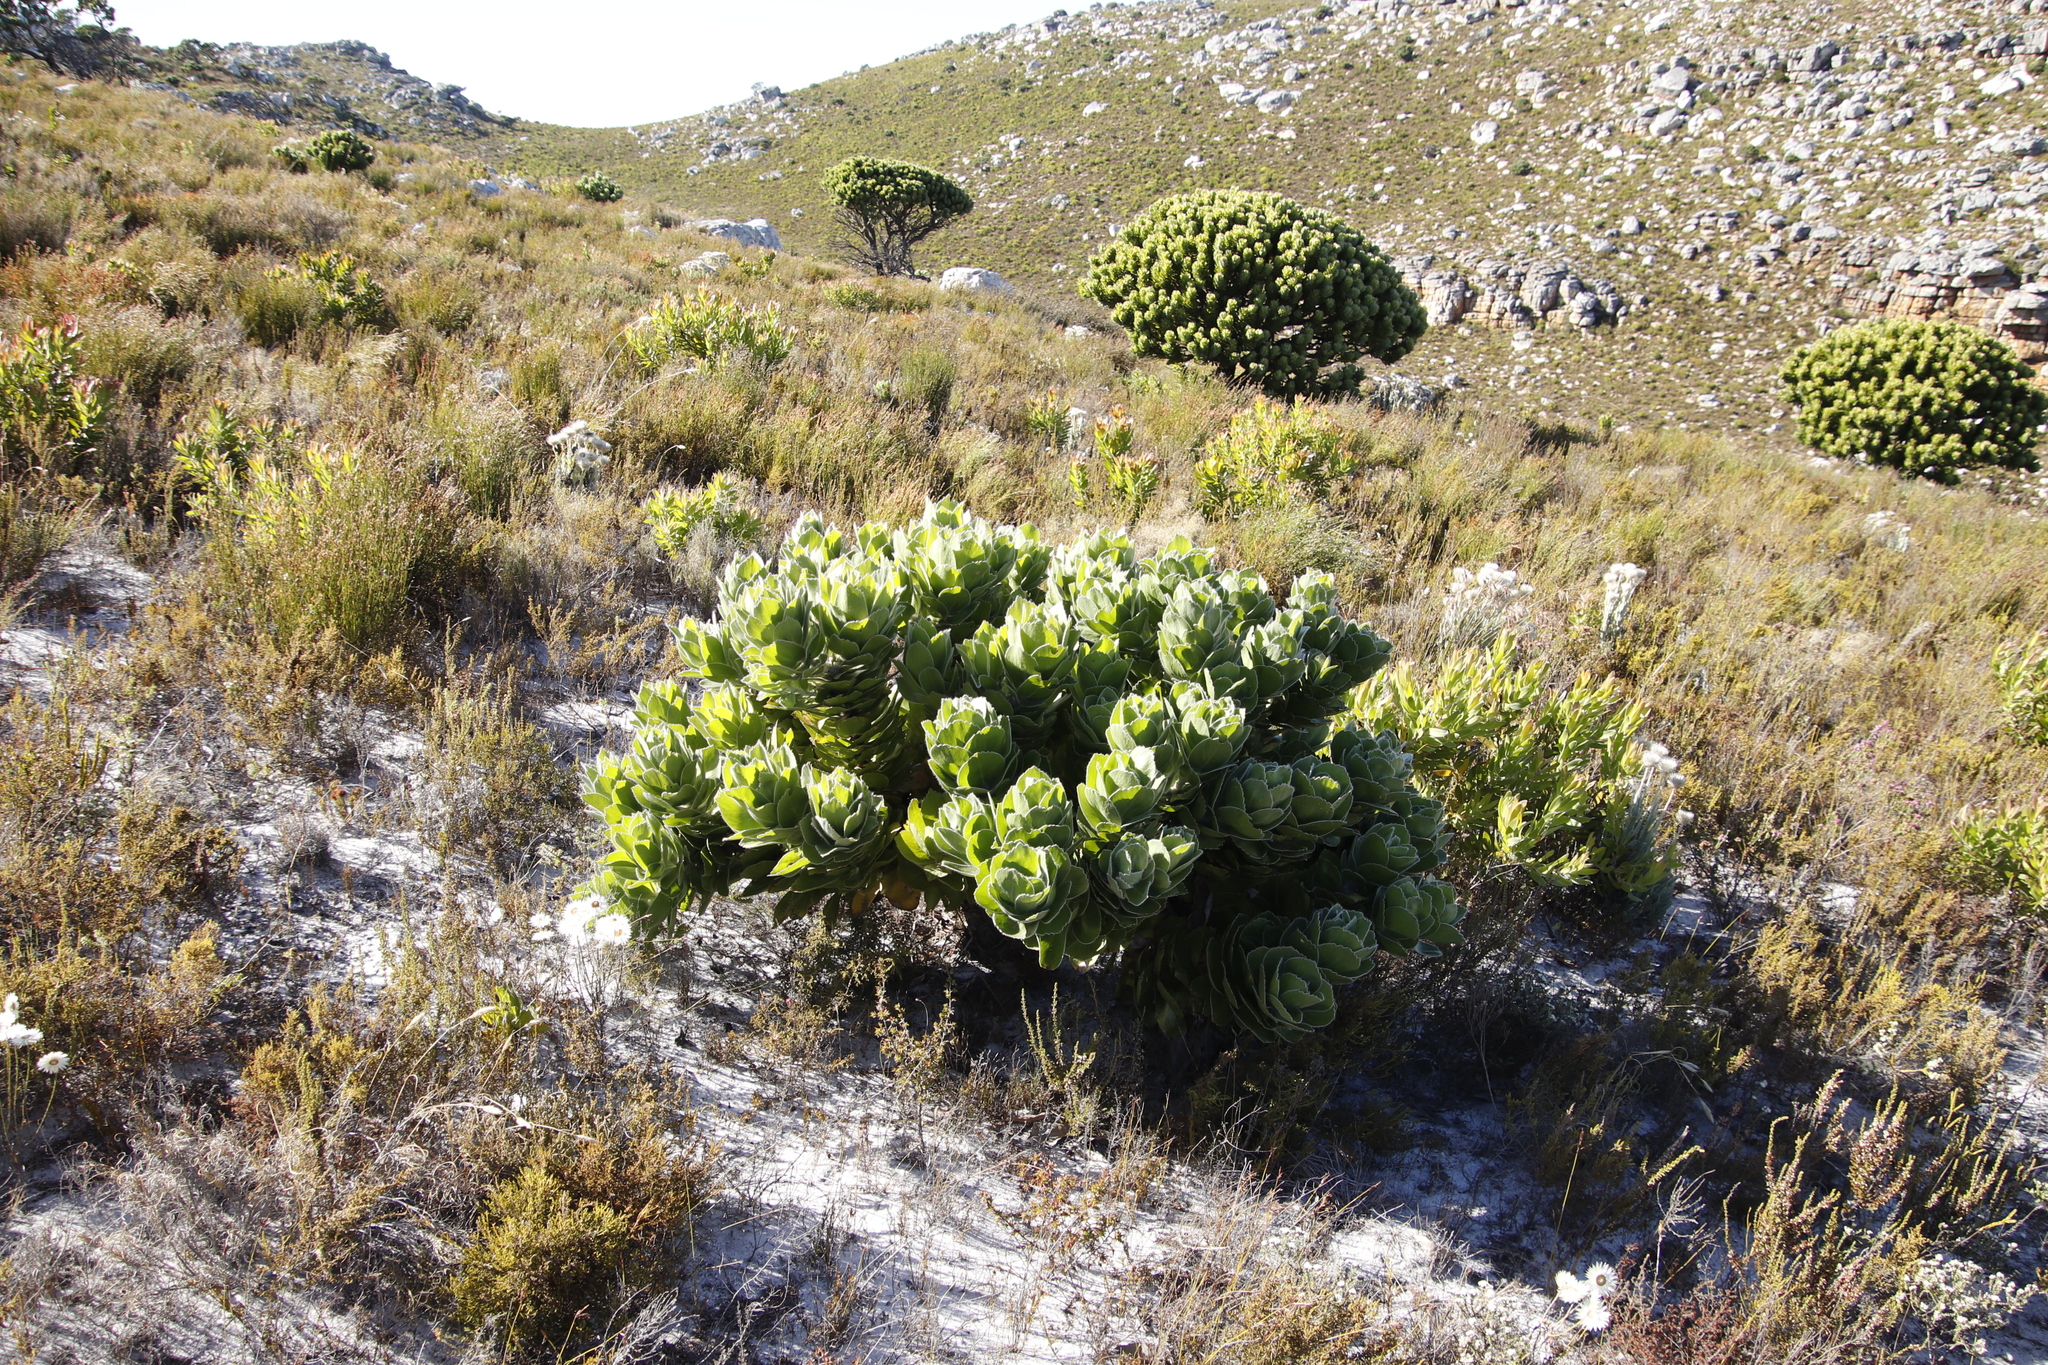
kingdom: Plantae
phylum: Tracheophyta
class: Magnoliopsida
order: Proteales
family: Proteaceae
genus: Leucospermum
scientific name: Leucospermum conocarpodendron
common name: Tree pincushion
